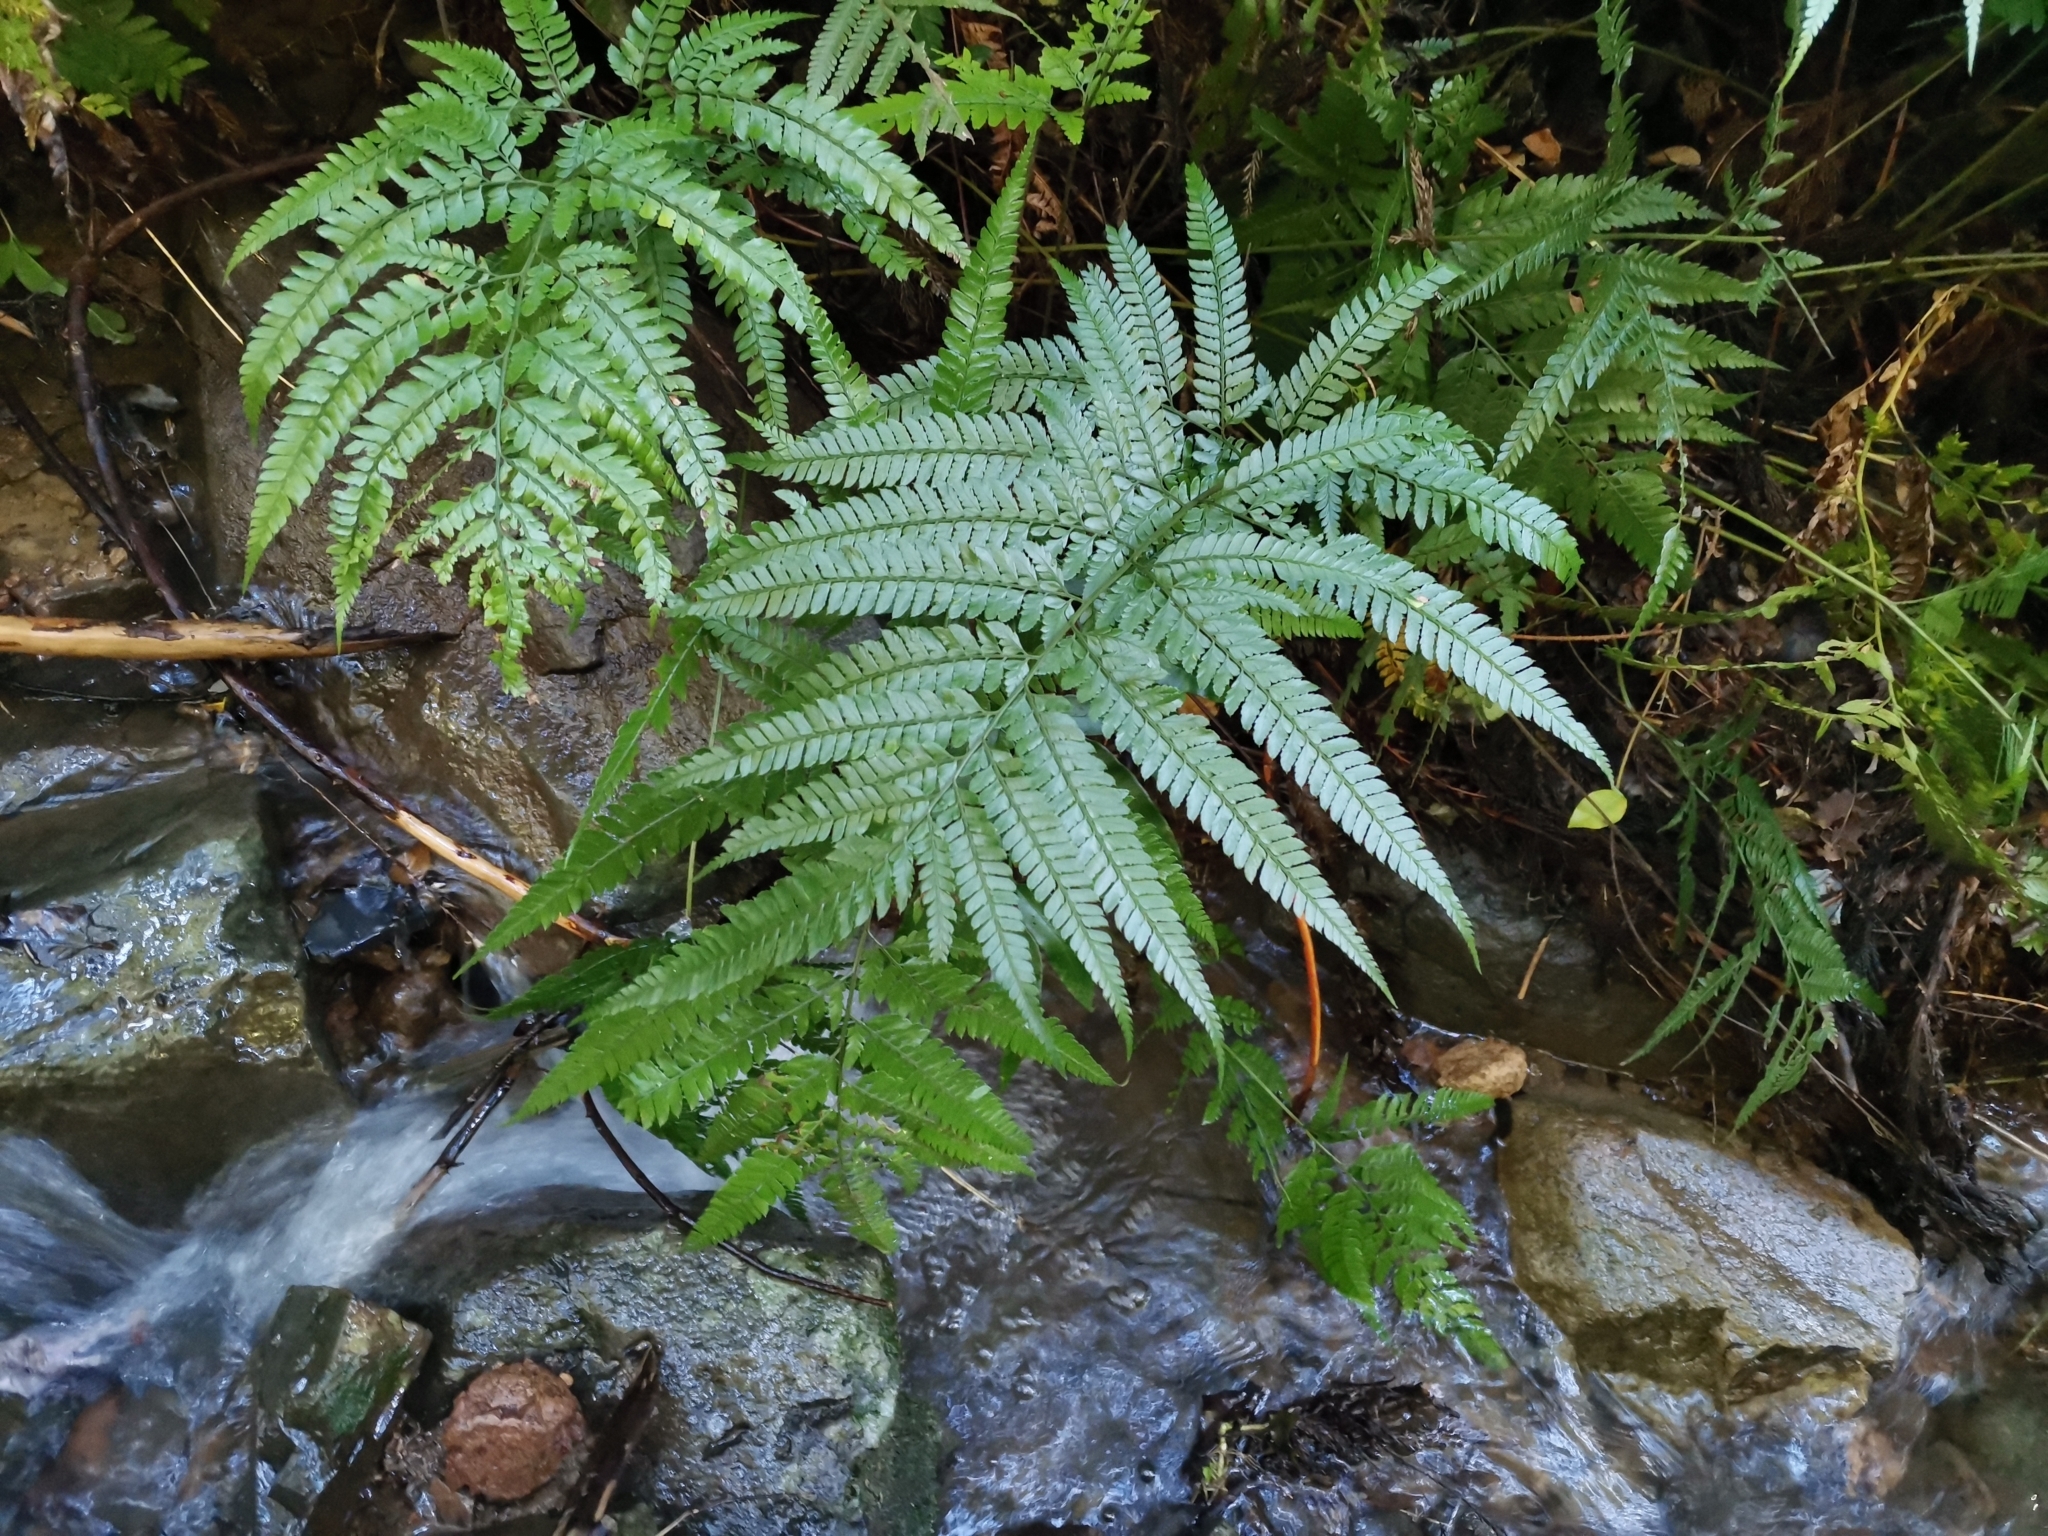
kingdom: Plantae
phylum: Tracheophyta
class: Polypodiopsida
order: Polypodiales
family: Dryopteridaceae
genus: Arachniodes
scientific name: Arachniodes aristata
